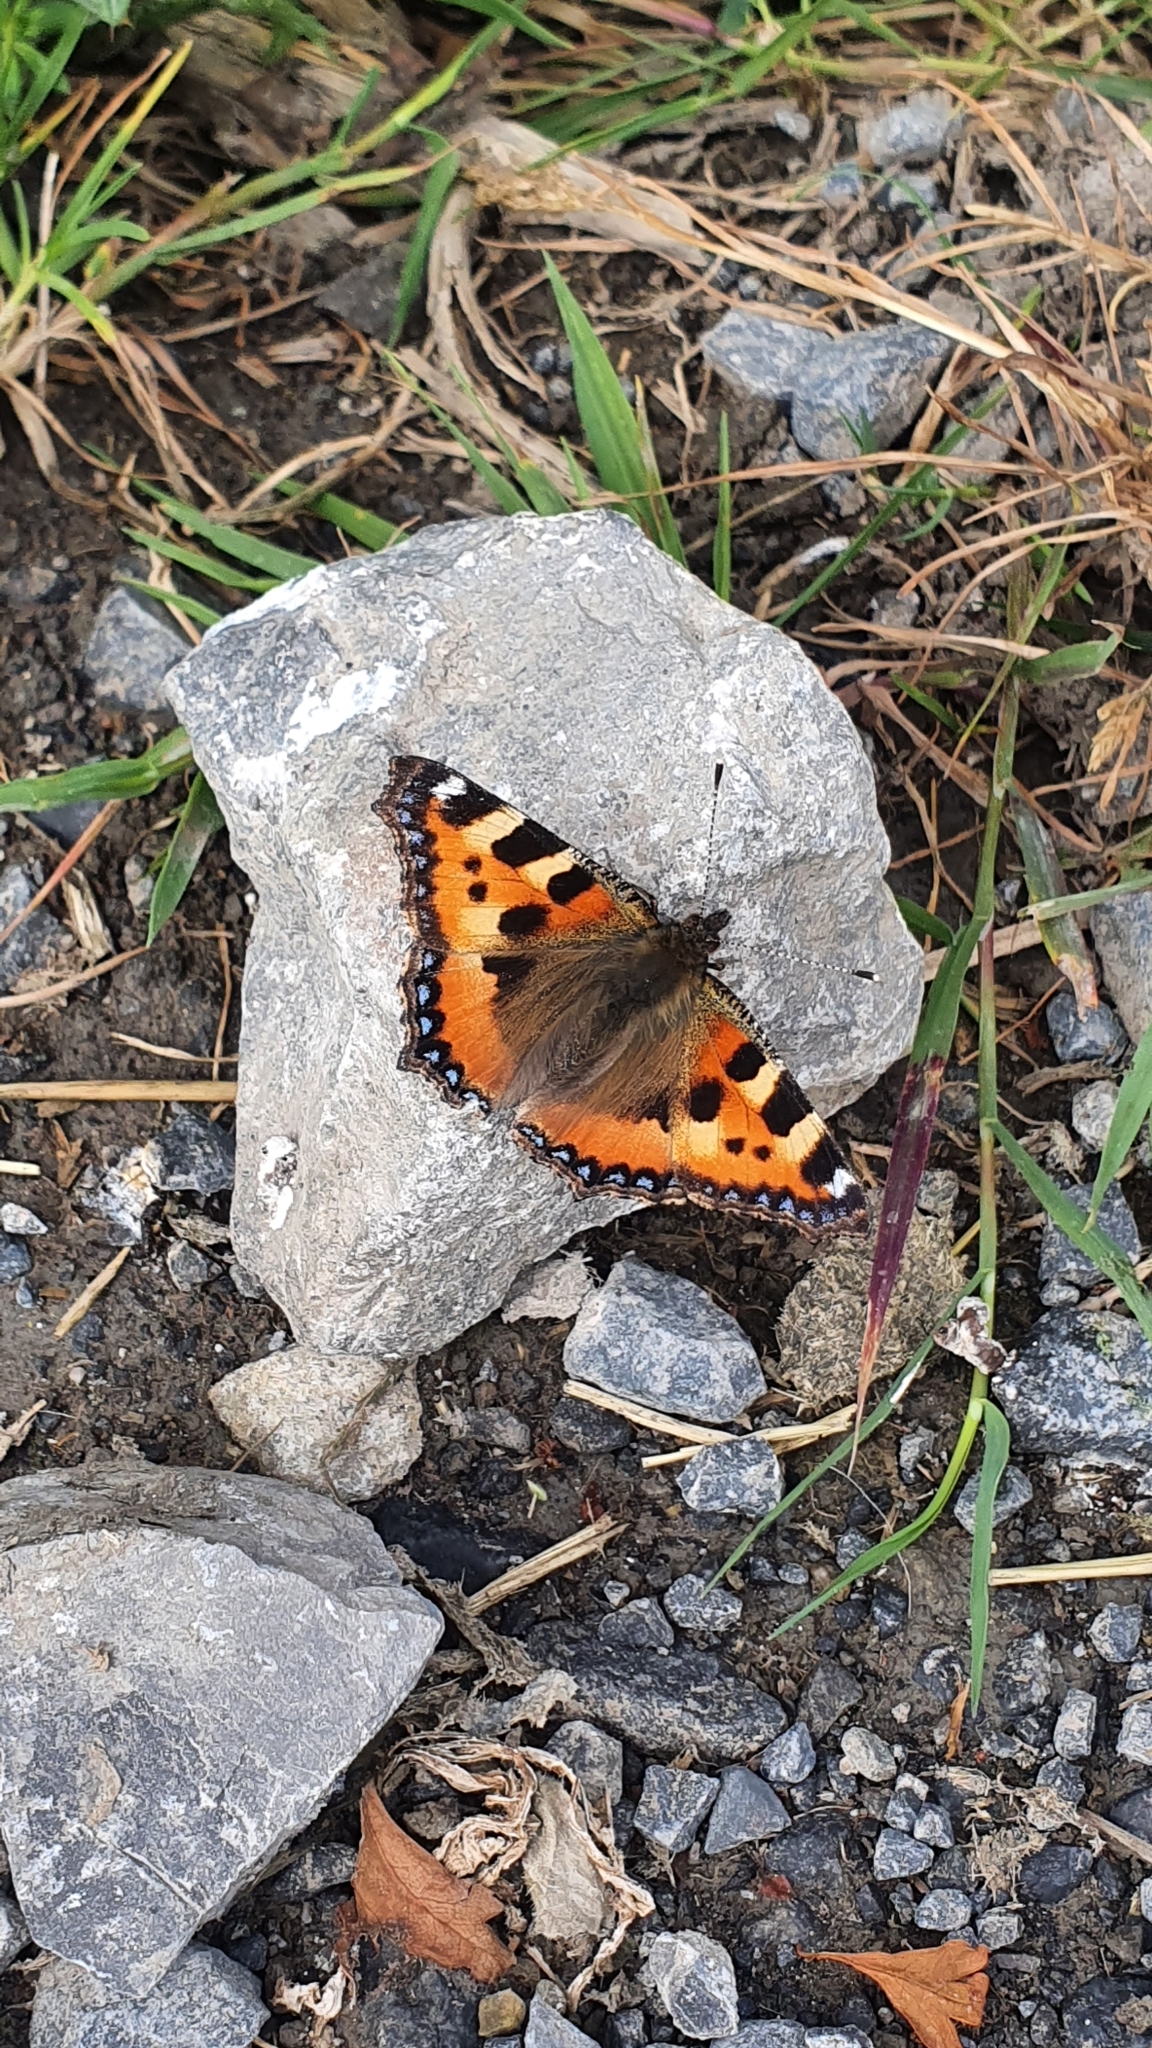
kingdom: Animalia
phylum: Arthropoda
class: Insecta
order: Lepidoptera
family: Nymphalidae
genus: Aglais
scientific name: Aglais urticae
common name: Small tortoiseshell
